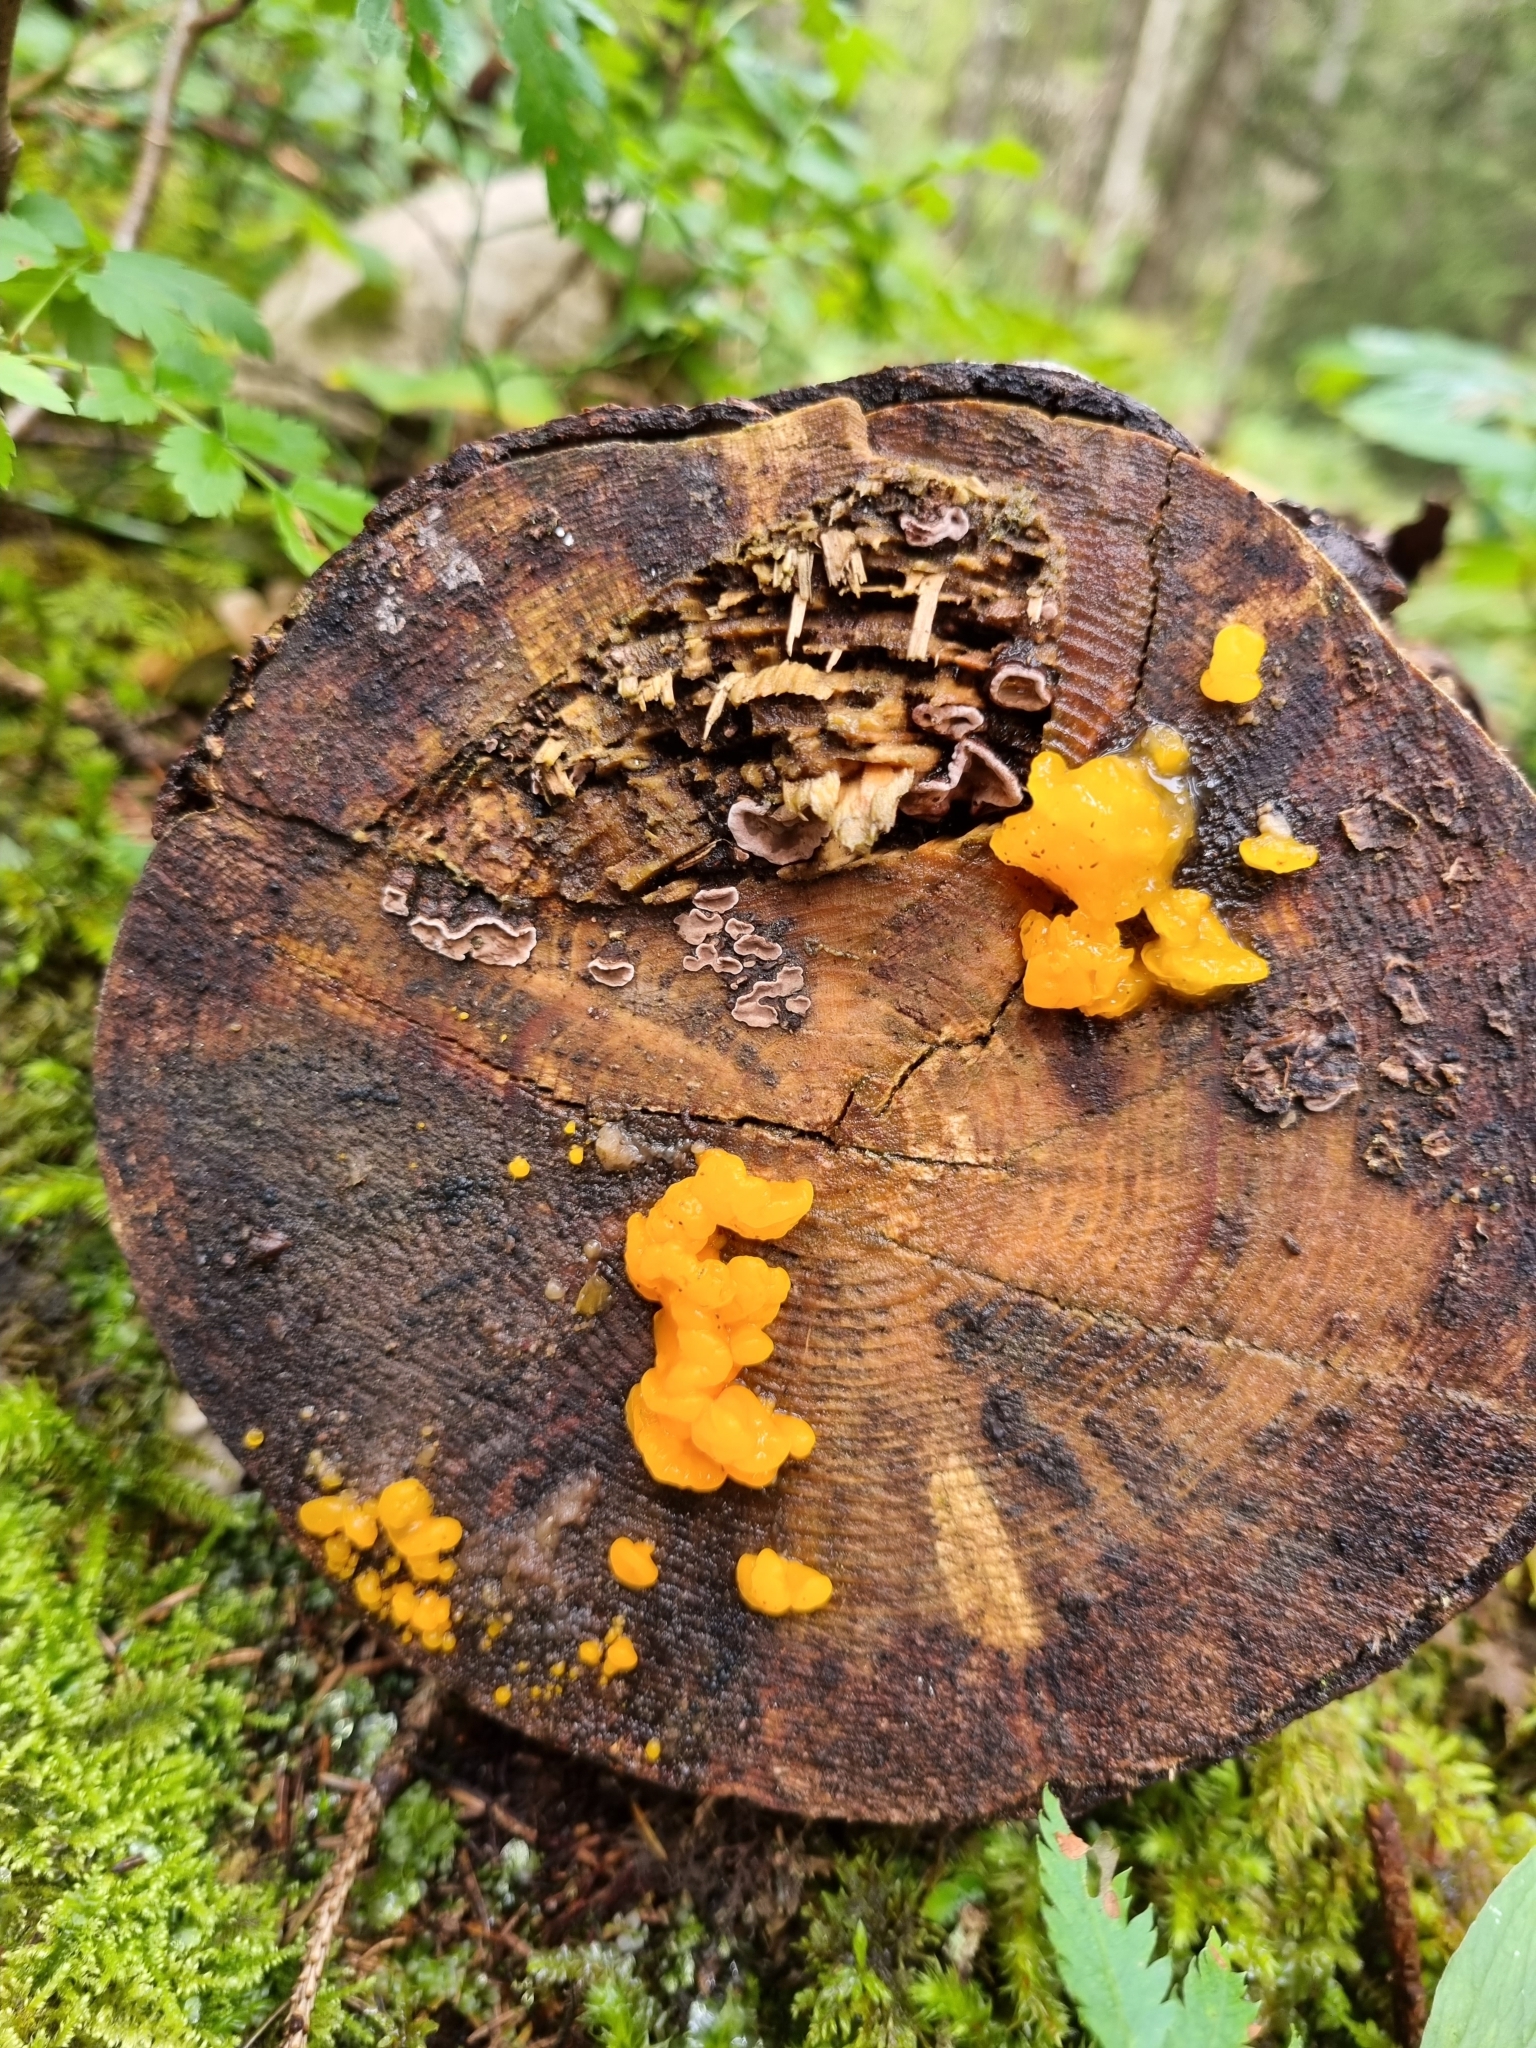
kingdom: Fungi
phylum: Basidiomycota
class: Tremellomycetes
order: Tremellales
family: Tremellaceae
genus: Tremella
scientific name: Tremella mesenterica
